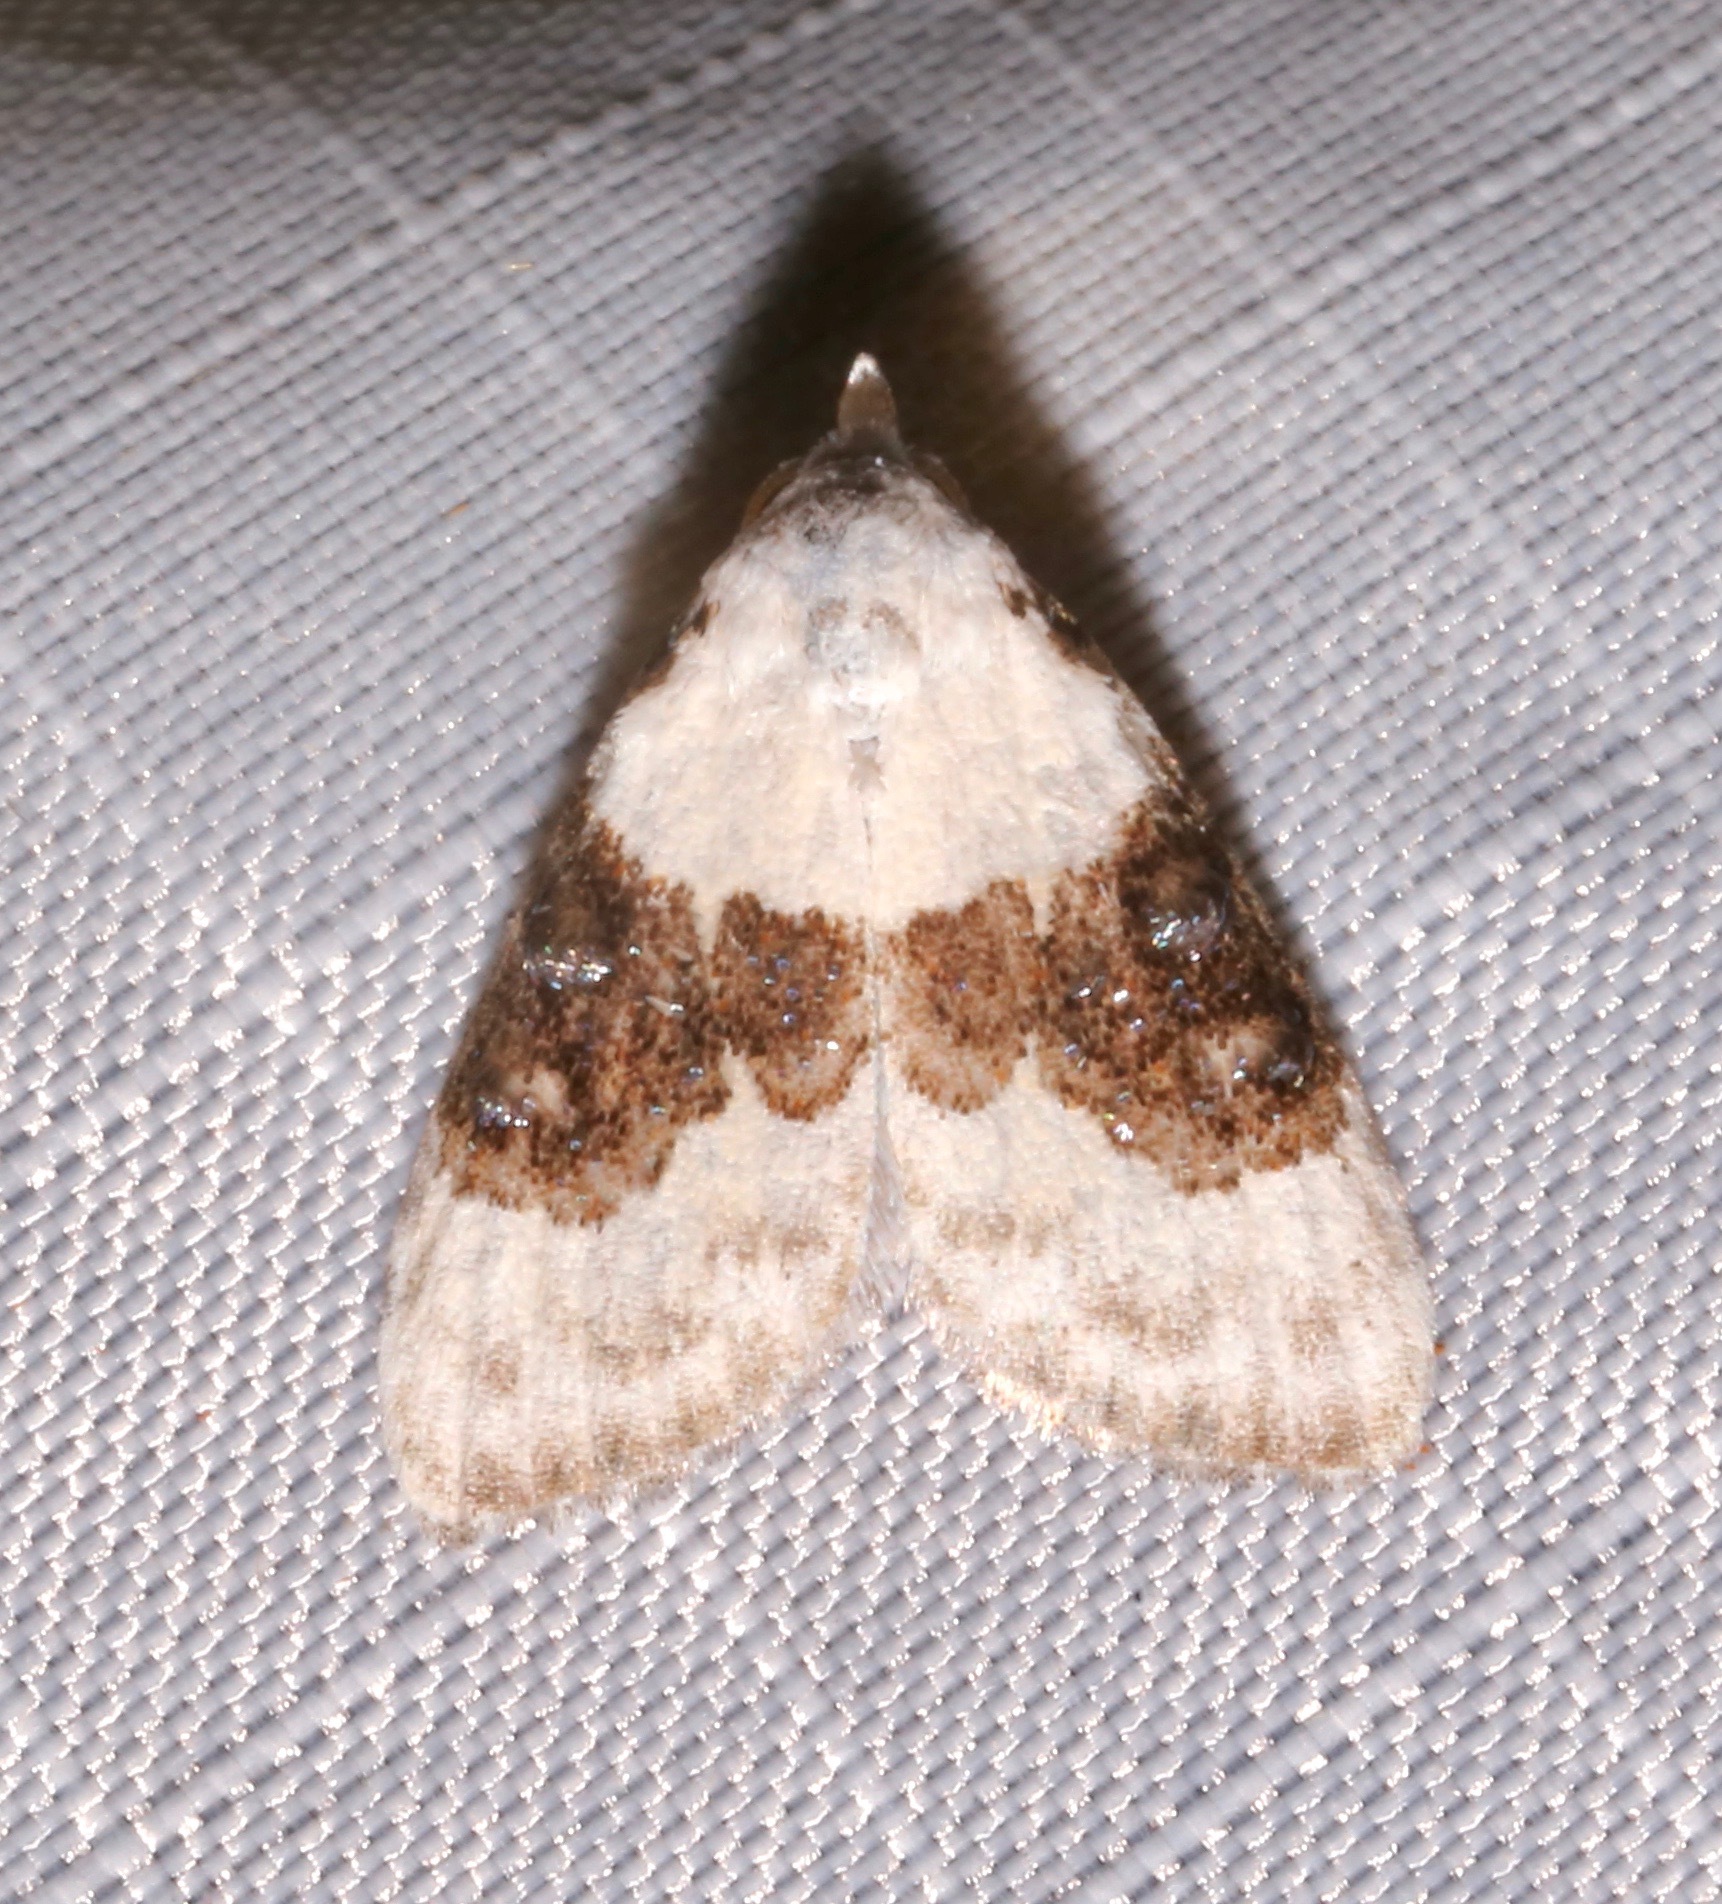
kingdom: Animalia
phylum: Arthropoda
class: Insecta
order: Lepidoptera
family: Nolidae
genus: Nola
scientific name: Nola pustulata
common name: Sharp-blotched nola moth
